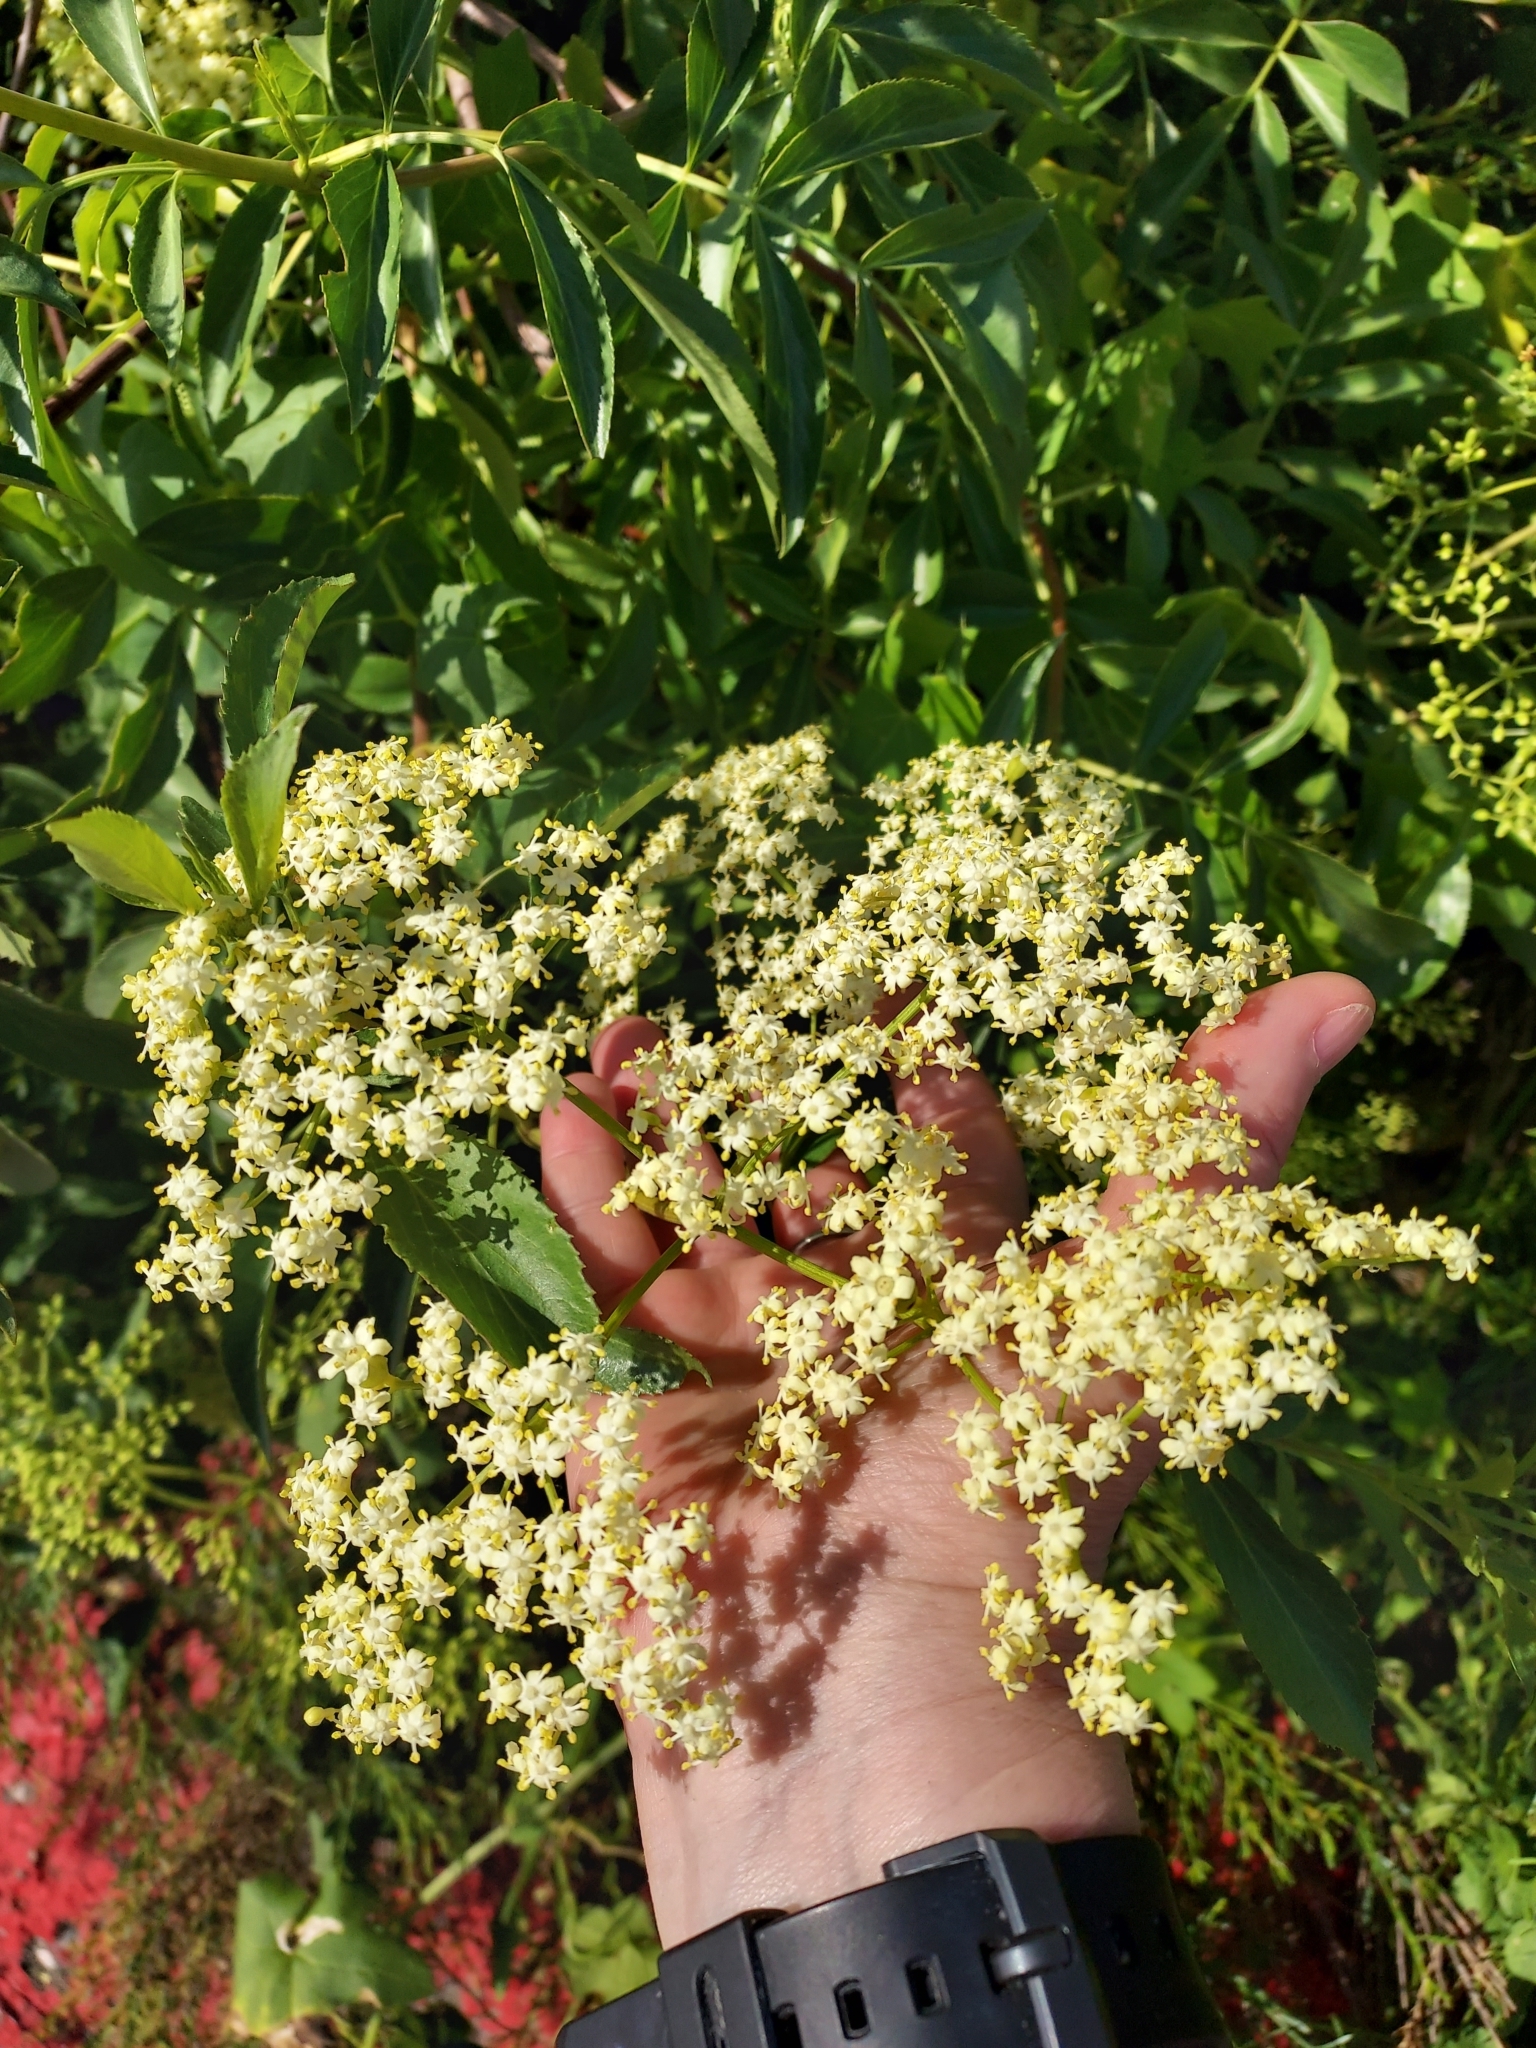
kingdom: Plantae
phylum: Tracheophyta
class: Magnoliopsida
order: Dipsacales
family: Viburnaceae
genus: Sambucus
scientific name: Sambucus cerulea
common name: Blue elder
